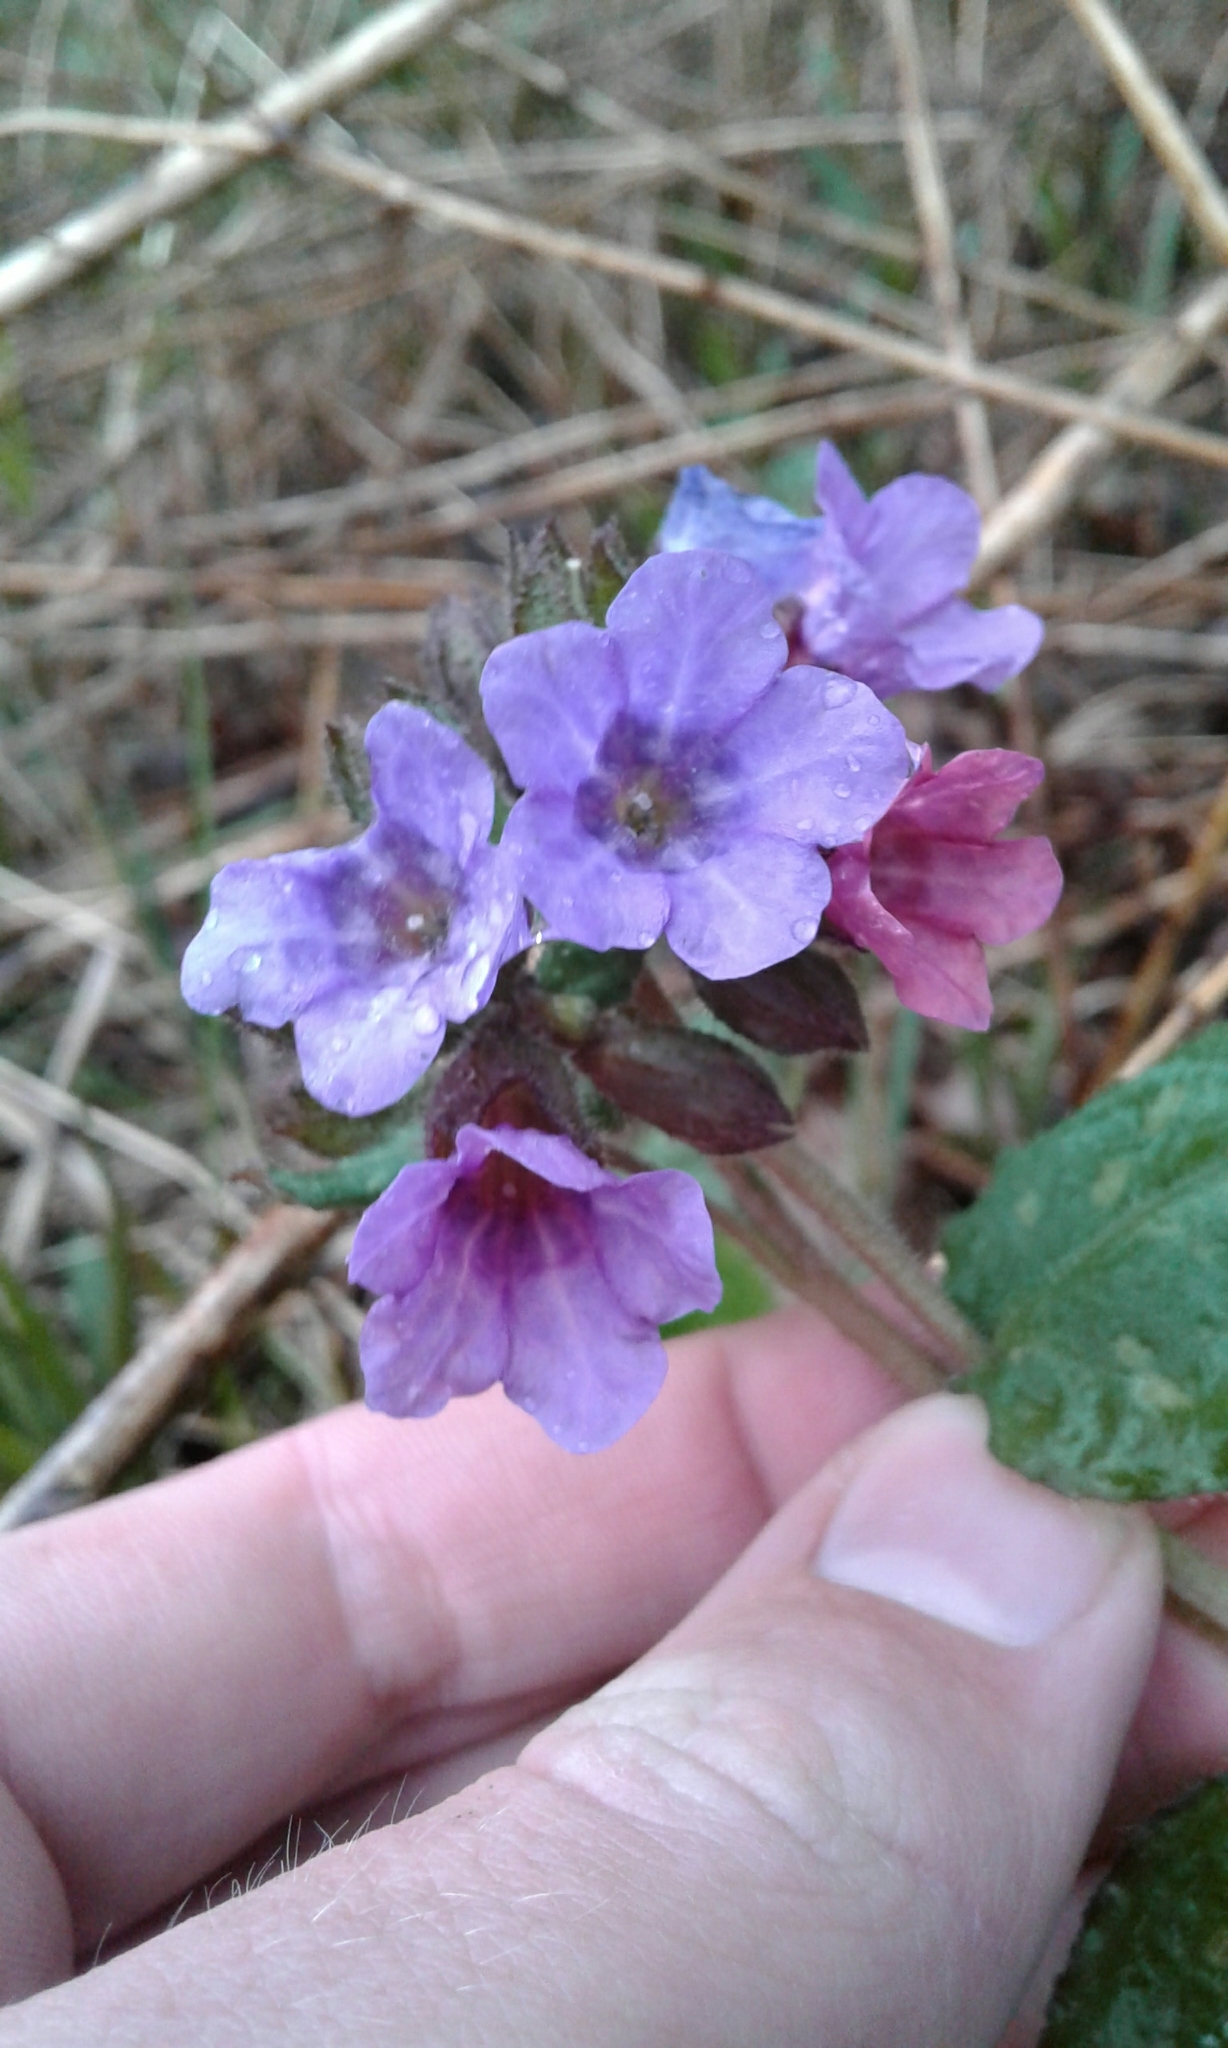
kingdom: Plantae
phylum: Tracheophyta
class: Magnoliopsida
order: Boraginales
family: Boraginaceae
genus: Pulmonaria
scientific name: Pulmonaria officinalis
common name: Lungwort
